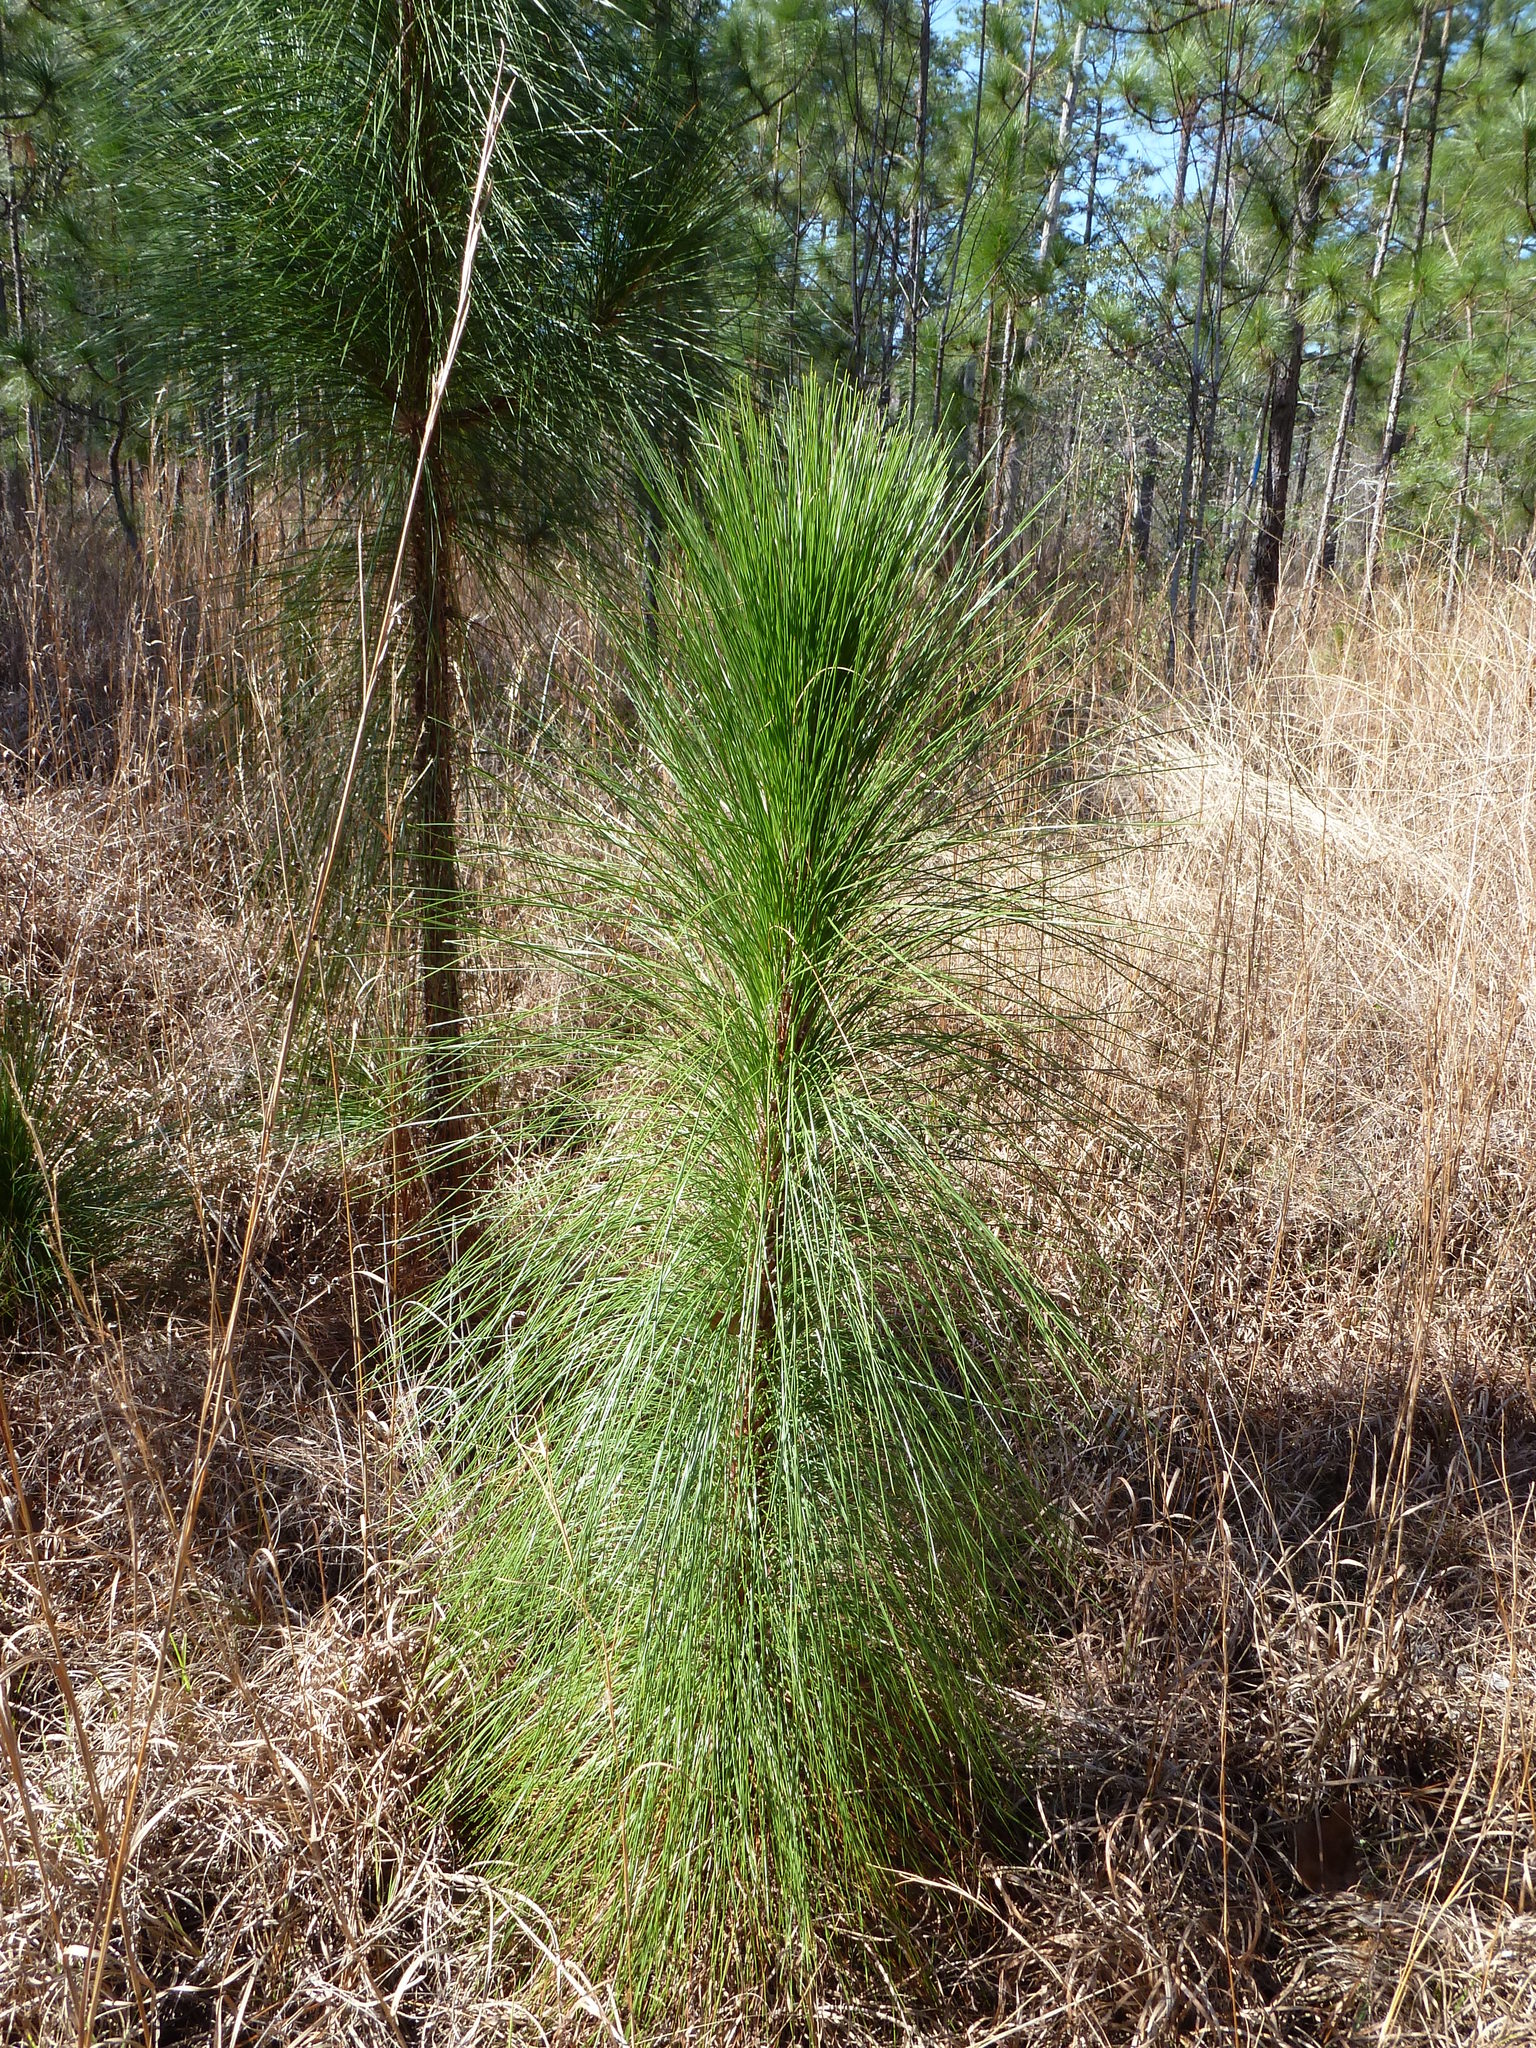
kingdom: Plantae
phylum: Tracheophyta
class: Pinopsida
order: Pinales
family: Pinaceae
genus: Pinus
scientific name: Pinus palustris
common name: Longleaf pine
